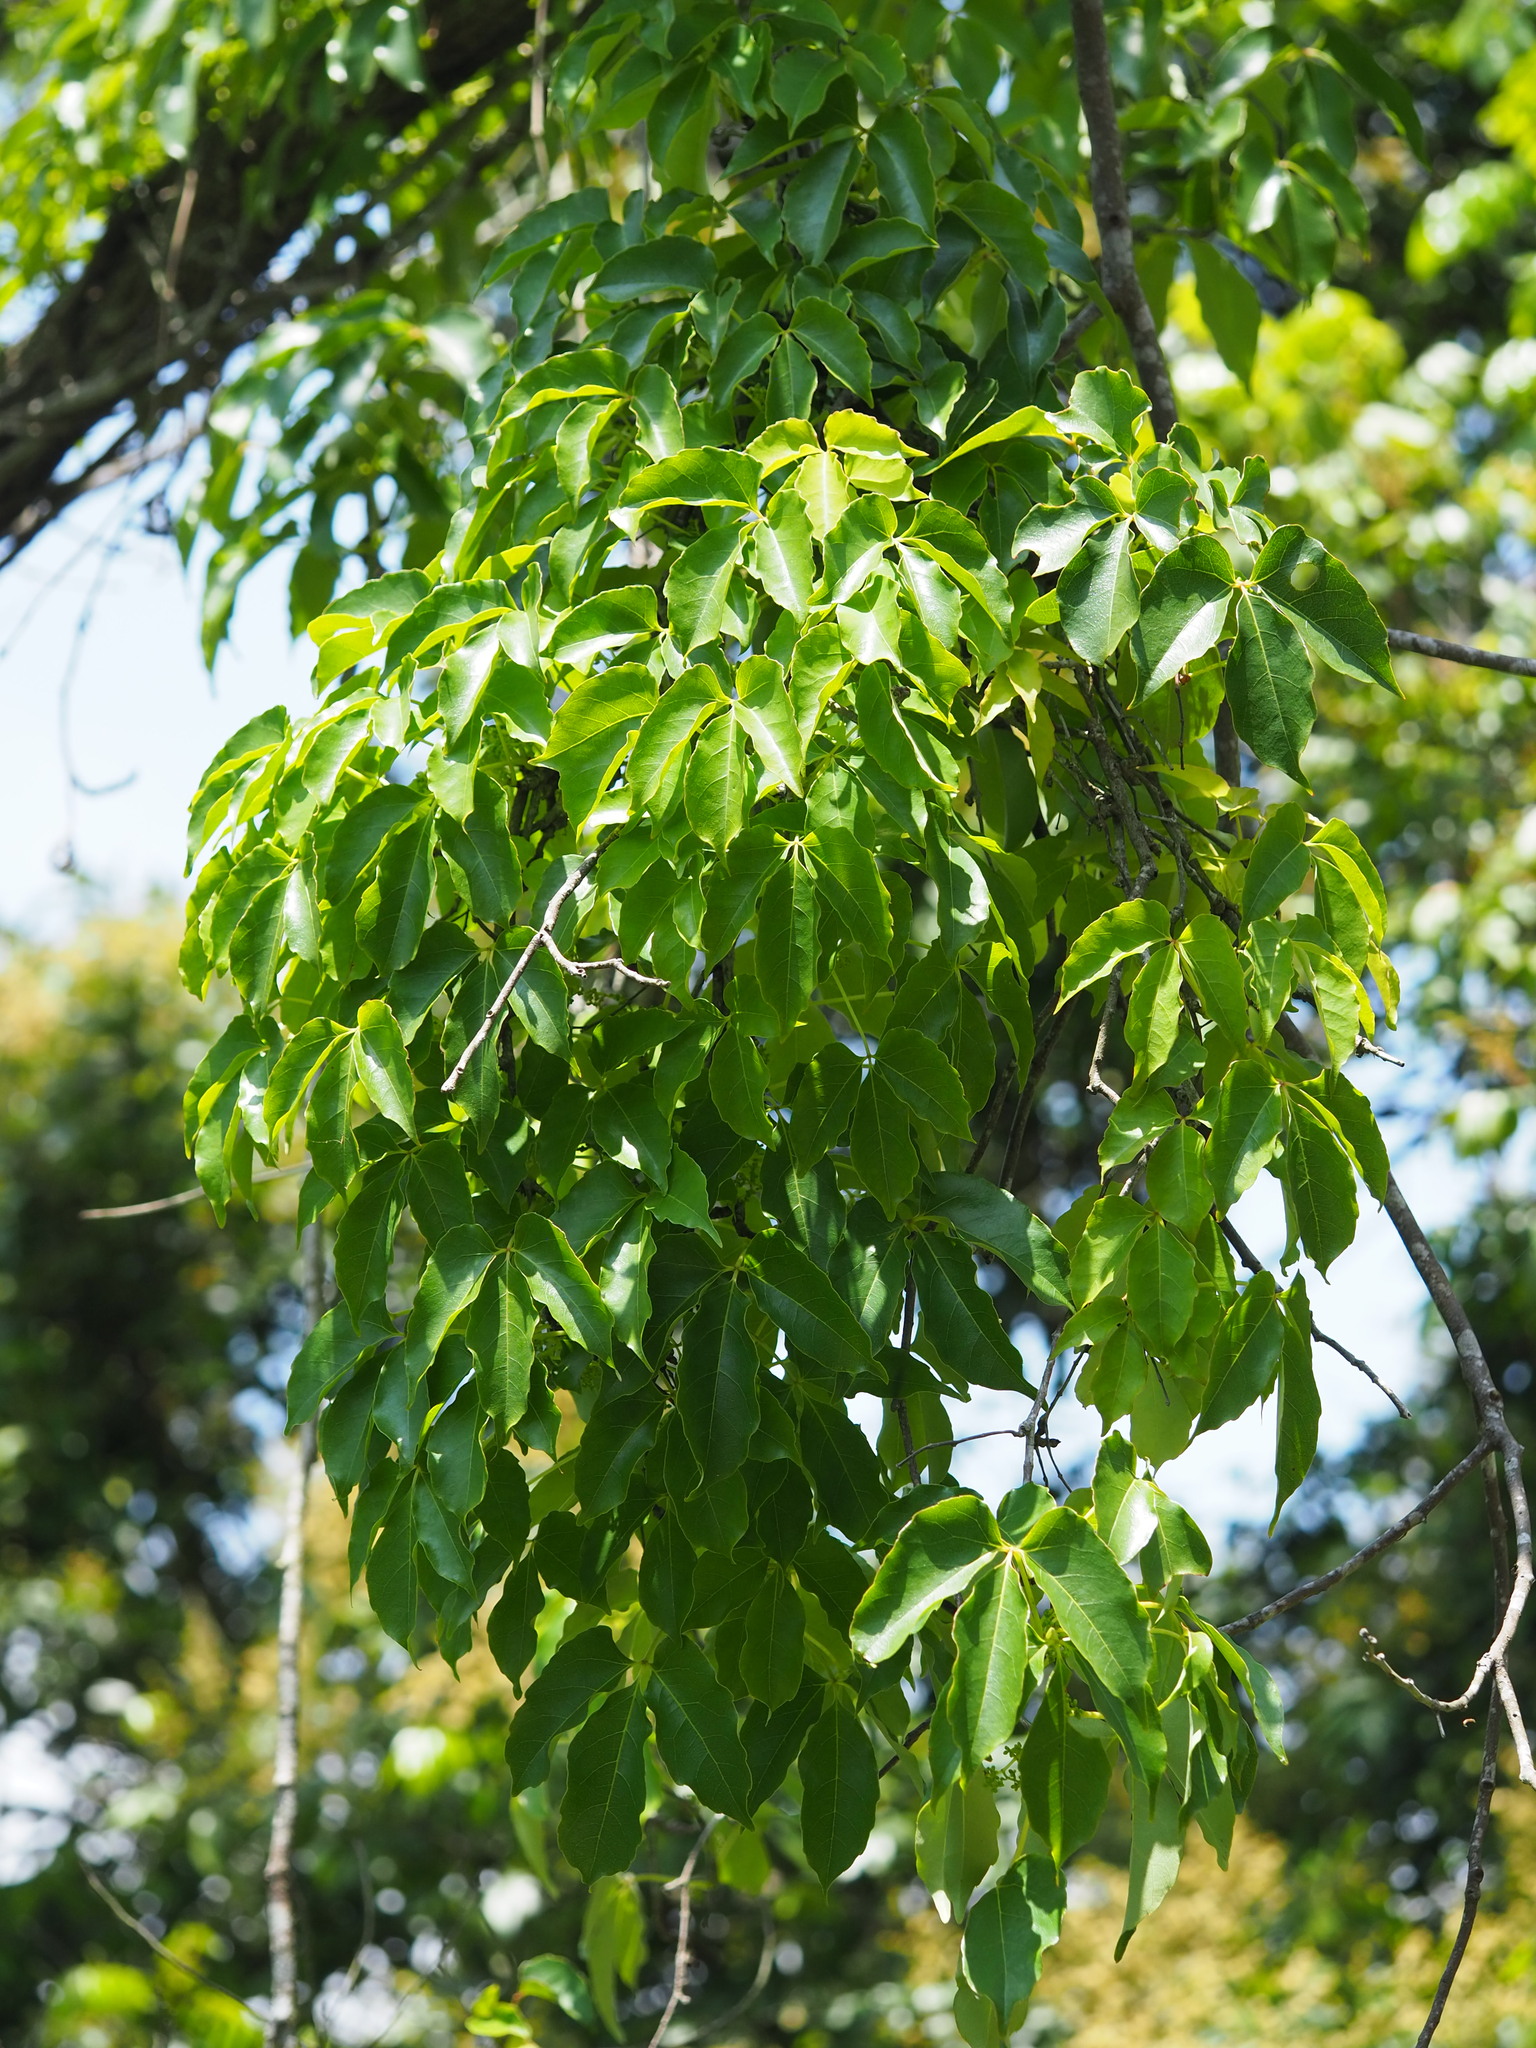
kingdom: Plantae
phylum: Tracheophyta
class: Magnoliopsida
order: Vitales
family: Vitaceae
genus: Parthenocissus
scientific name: Parthenocissus tricuspidata
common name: Boston ivy
